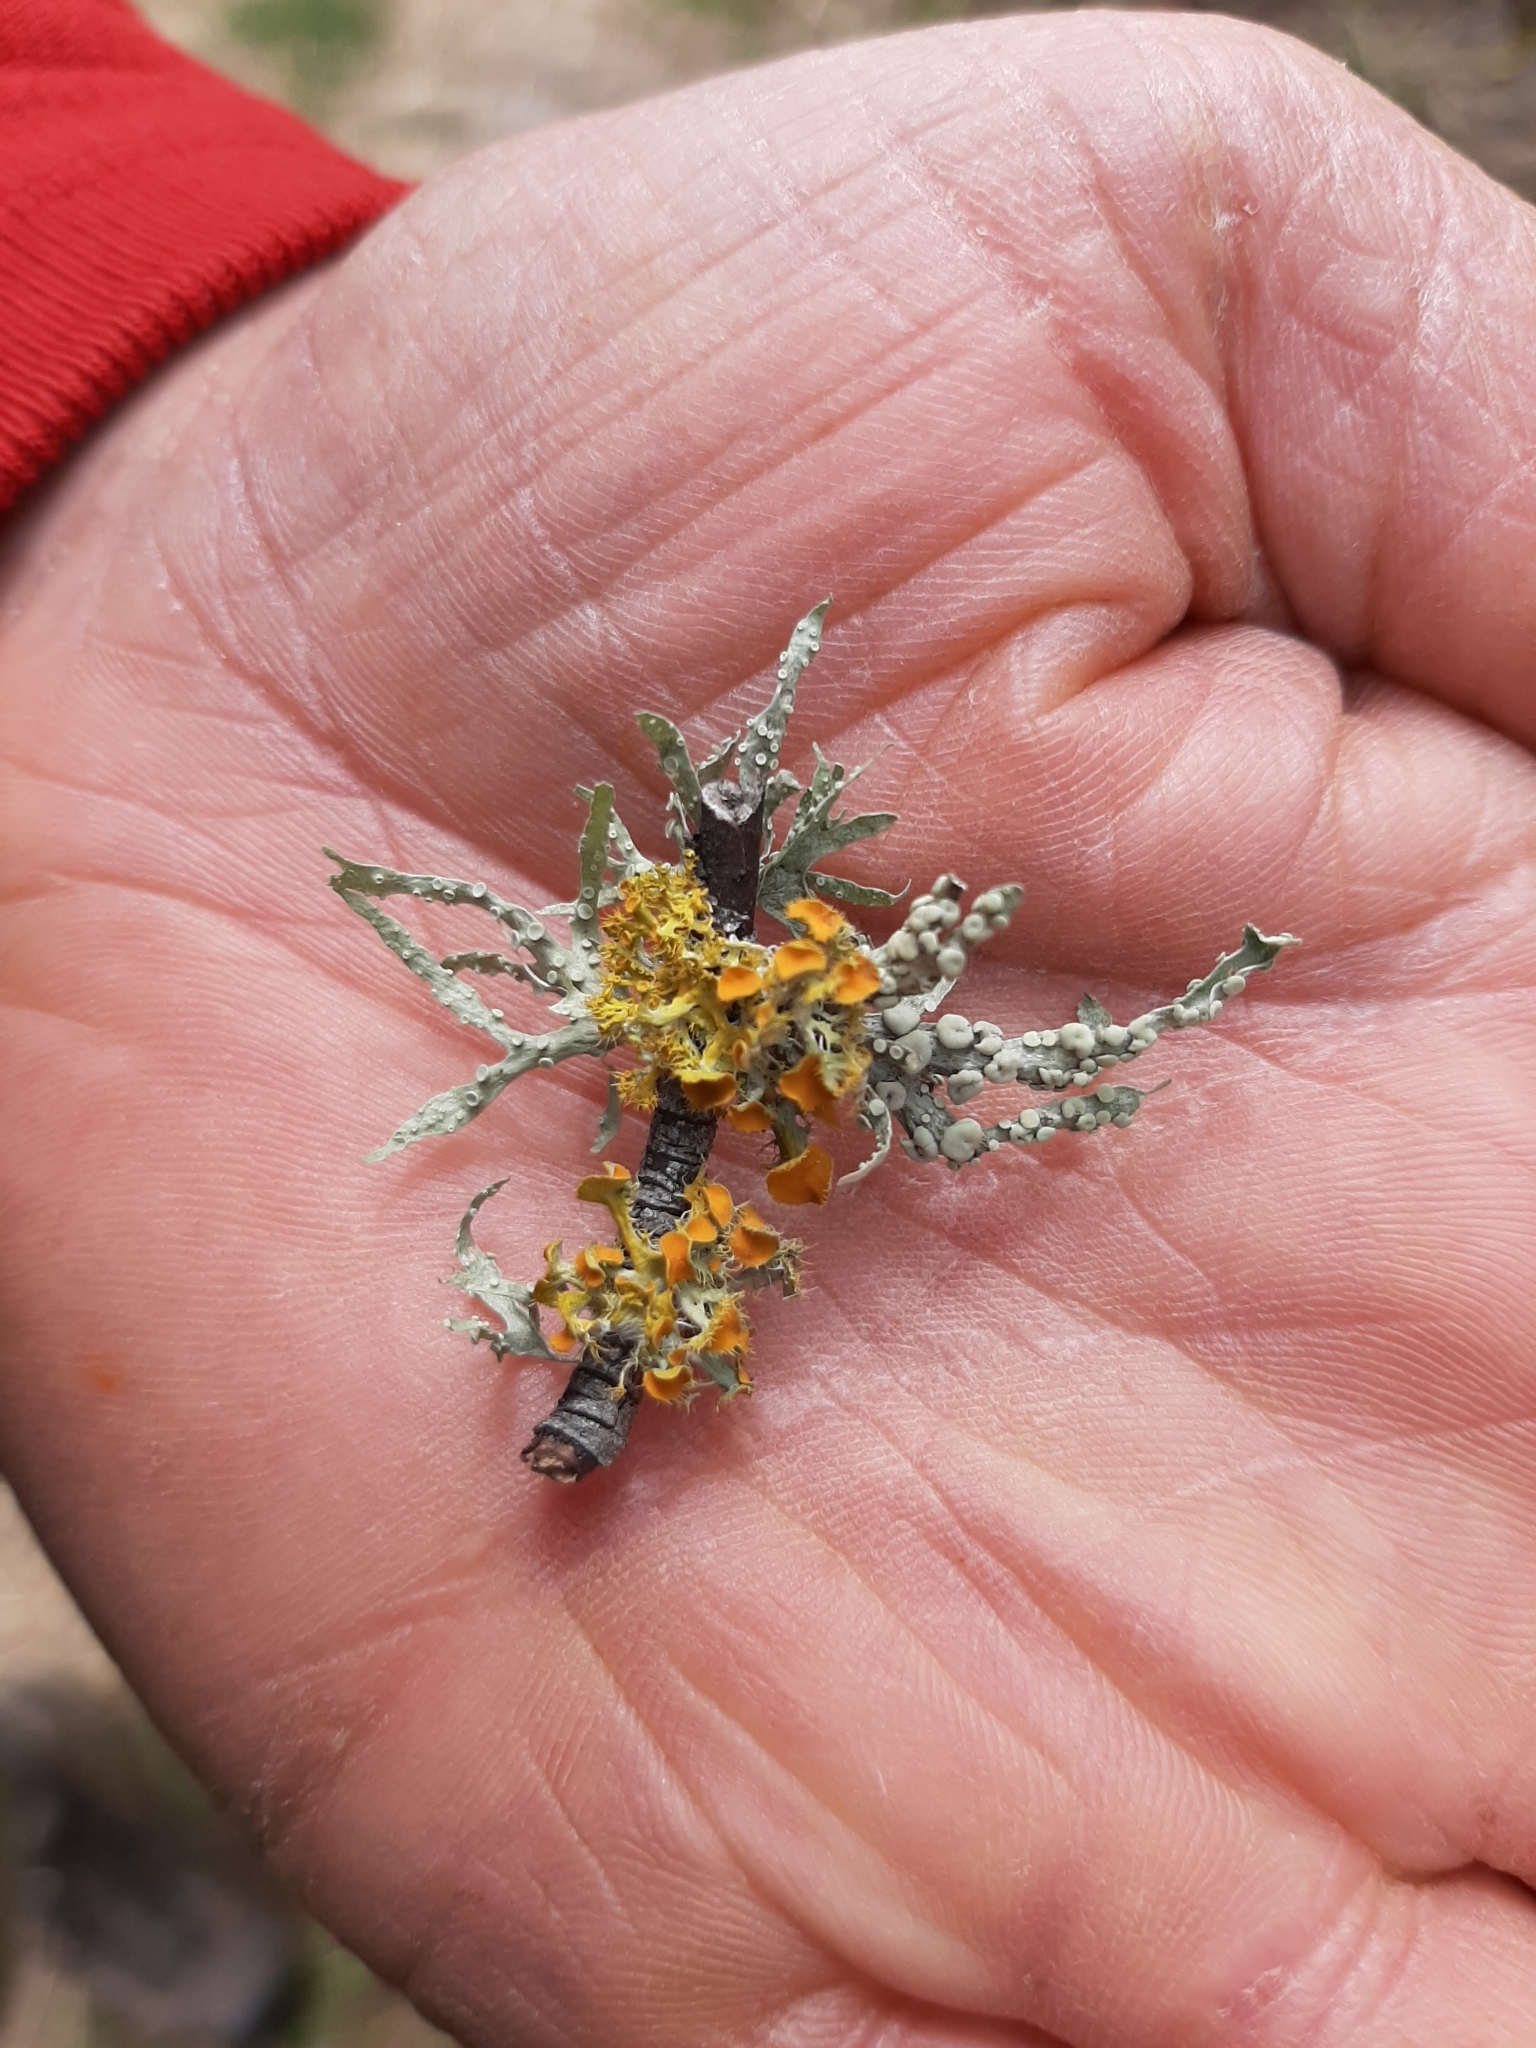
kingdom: Fungi
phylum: Ascomycota
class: Lecanoromycetes
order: Teloschistales
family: Teloschistaceae
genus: Niorma
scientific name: Niorma chrysophthalma
